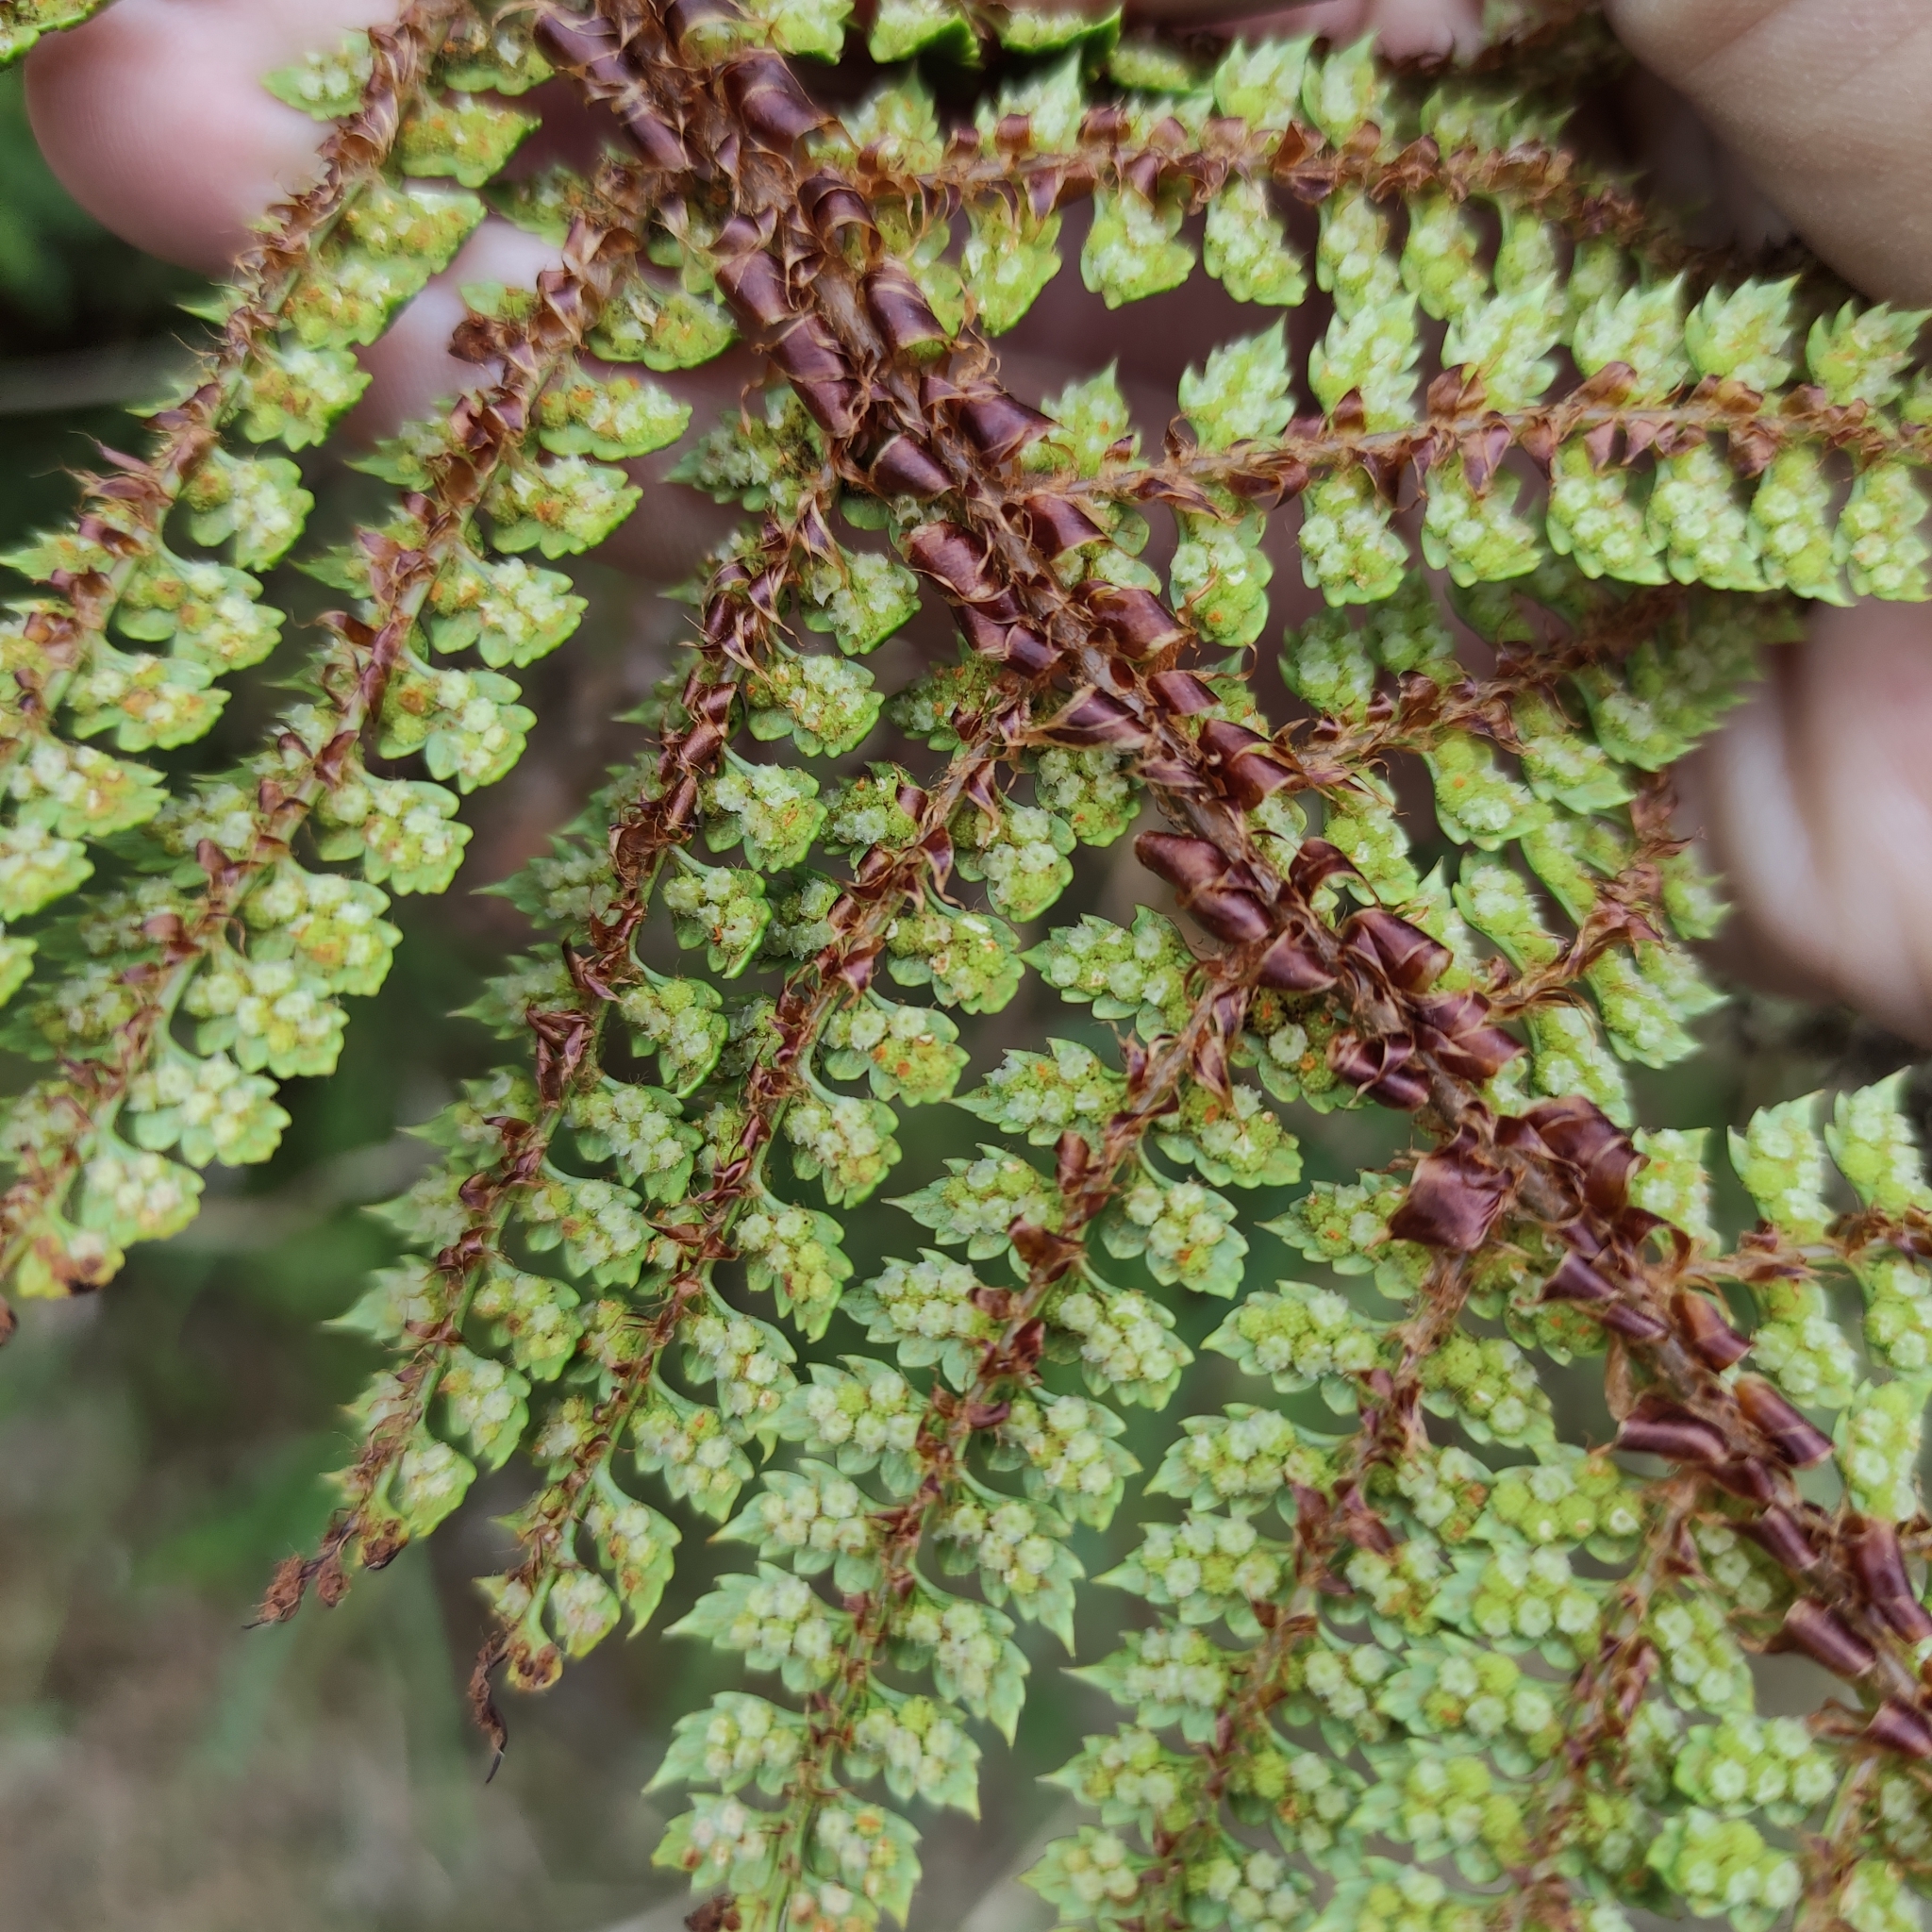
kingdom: Plantae
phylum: Tracheophyta
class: Polypodiopsida
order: Polypodiales
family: Dryopteridaceae
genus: Polystichum
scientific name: Polystichum vestitum
